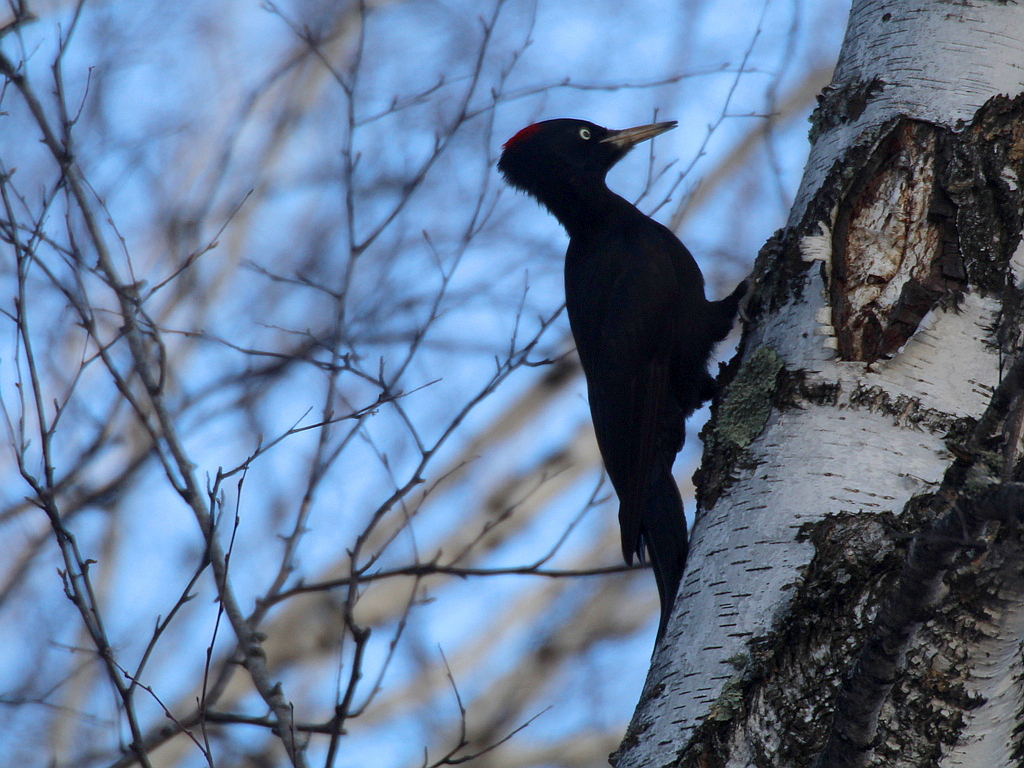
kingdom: Animalia
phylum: Chordata
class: Aves
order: Piciformes
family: Picidae
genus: Dryocopus
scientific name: Dryocopus martius
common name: Black woodpecker
